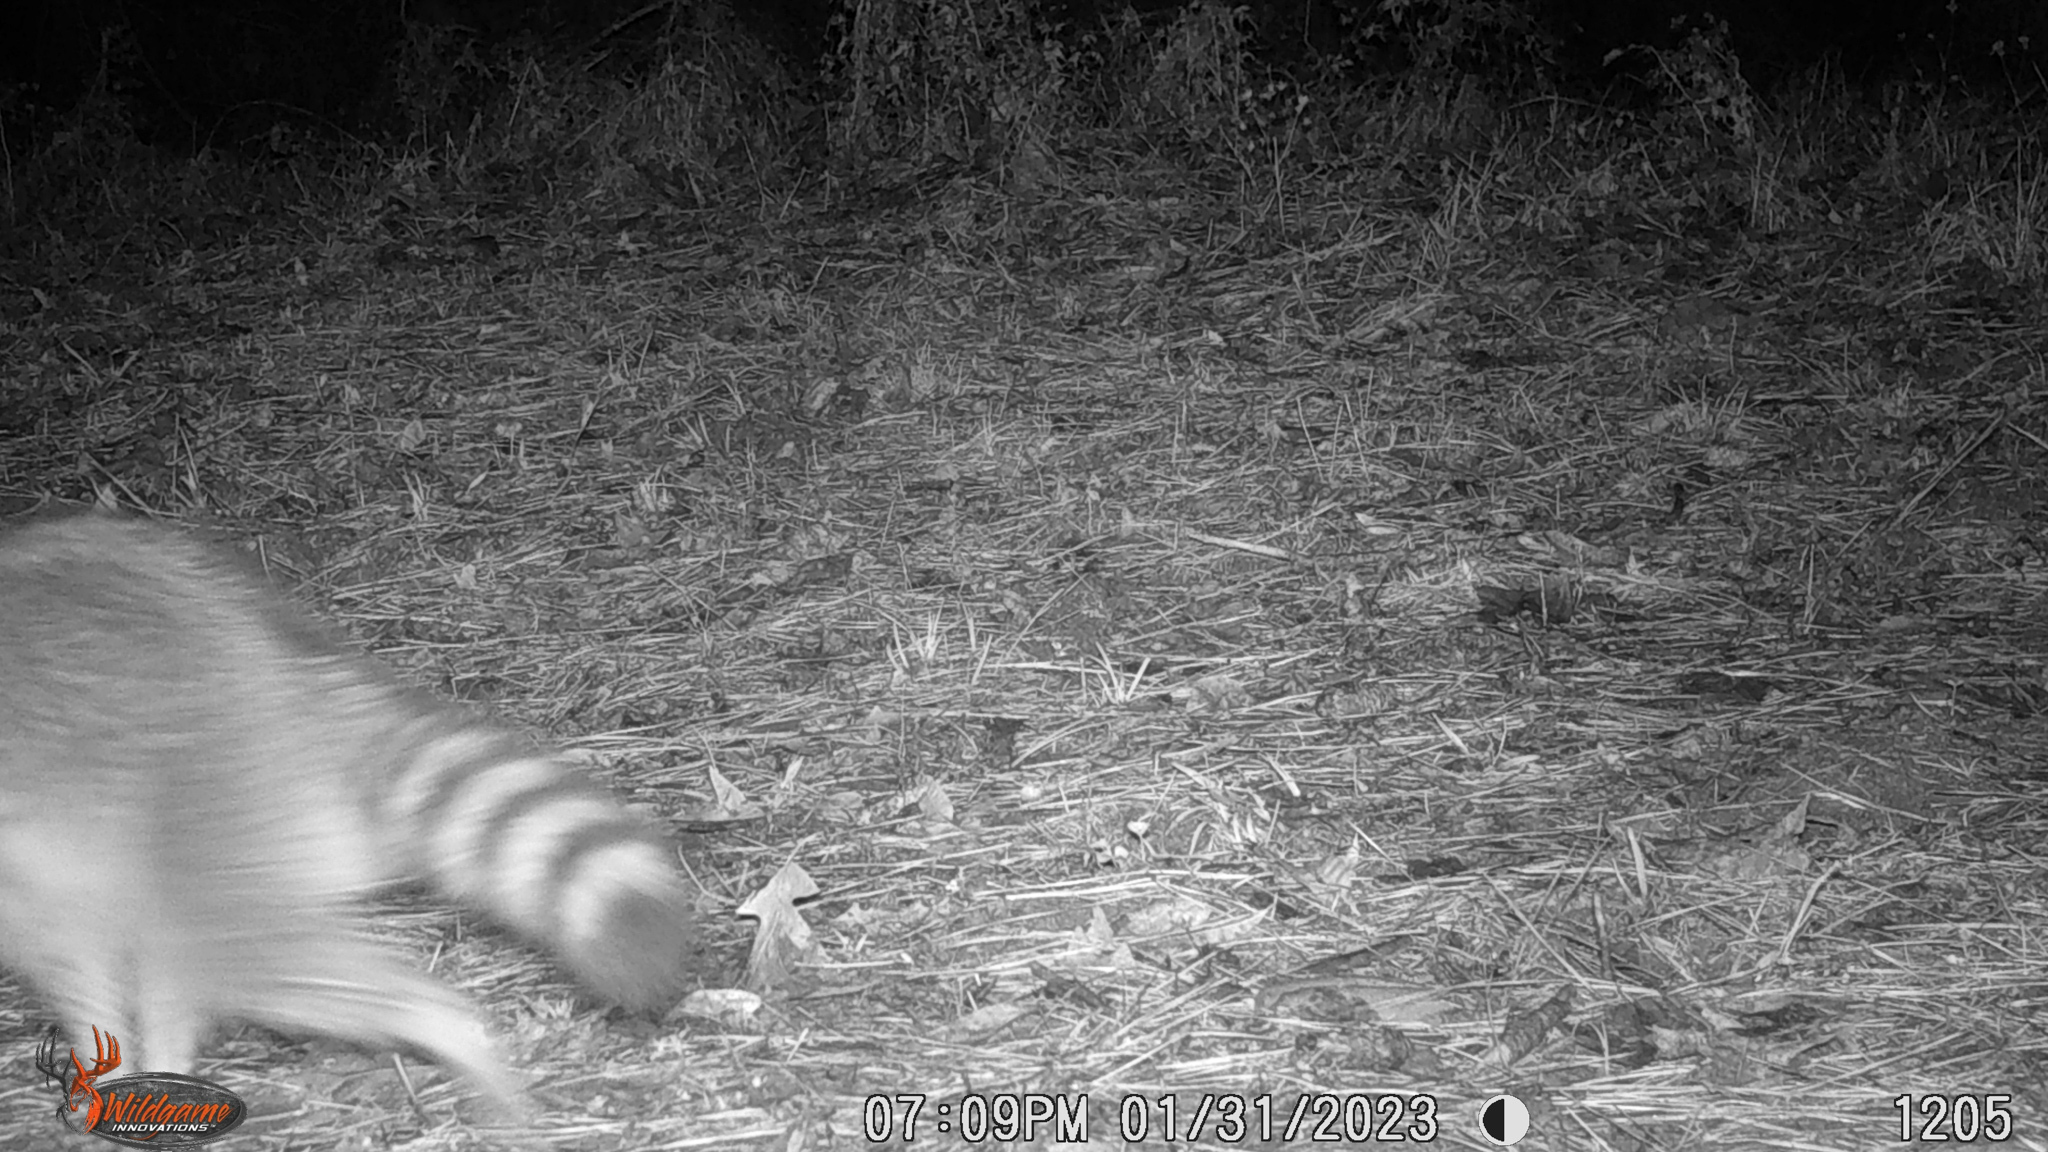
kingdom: Animalia
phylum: Chordata
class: Mammalia
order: Carnivora
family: Procyonidae
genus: Procyon
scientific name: Procyon lotor
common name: Raccoon
